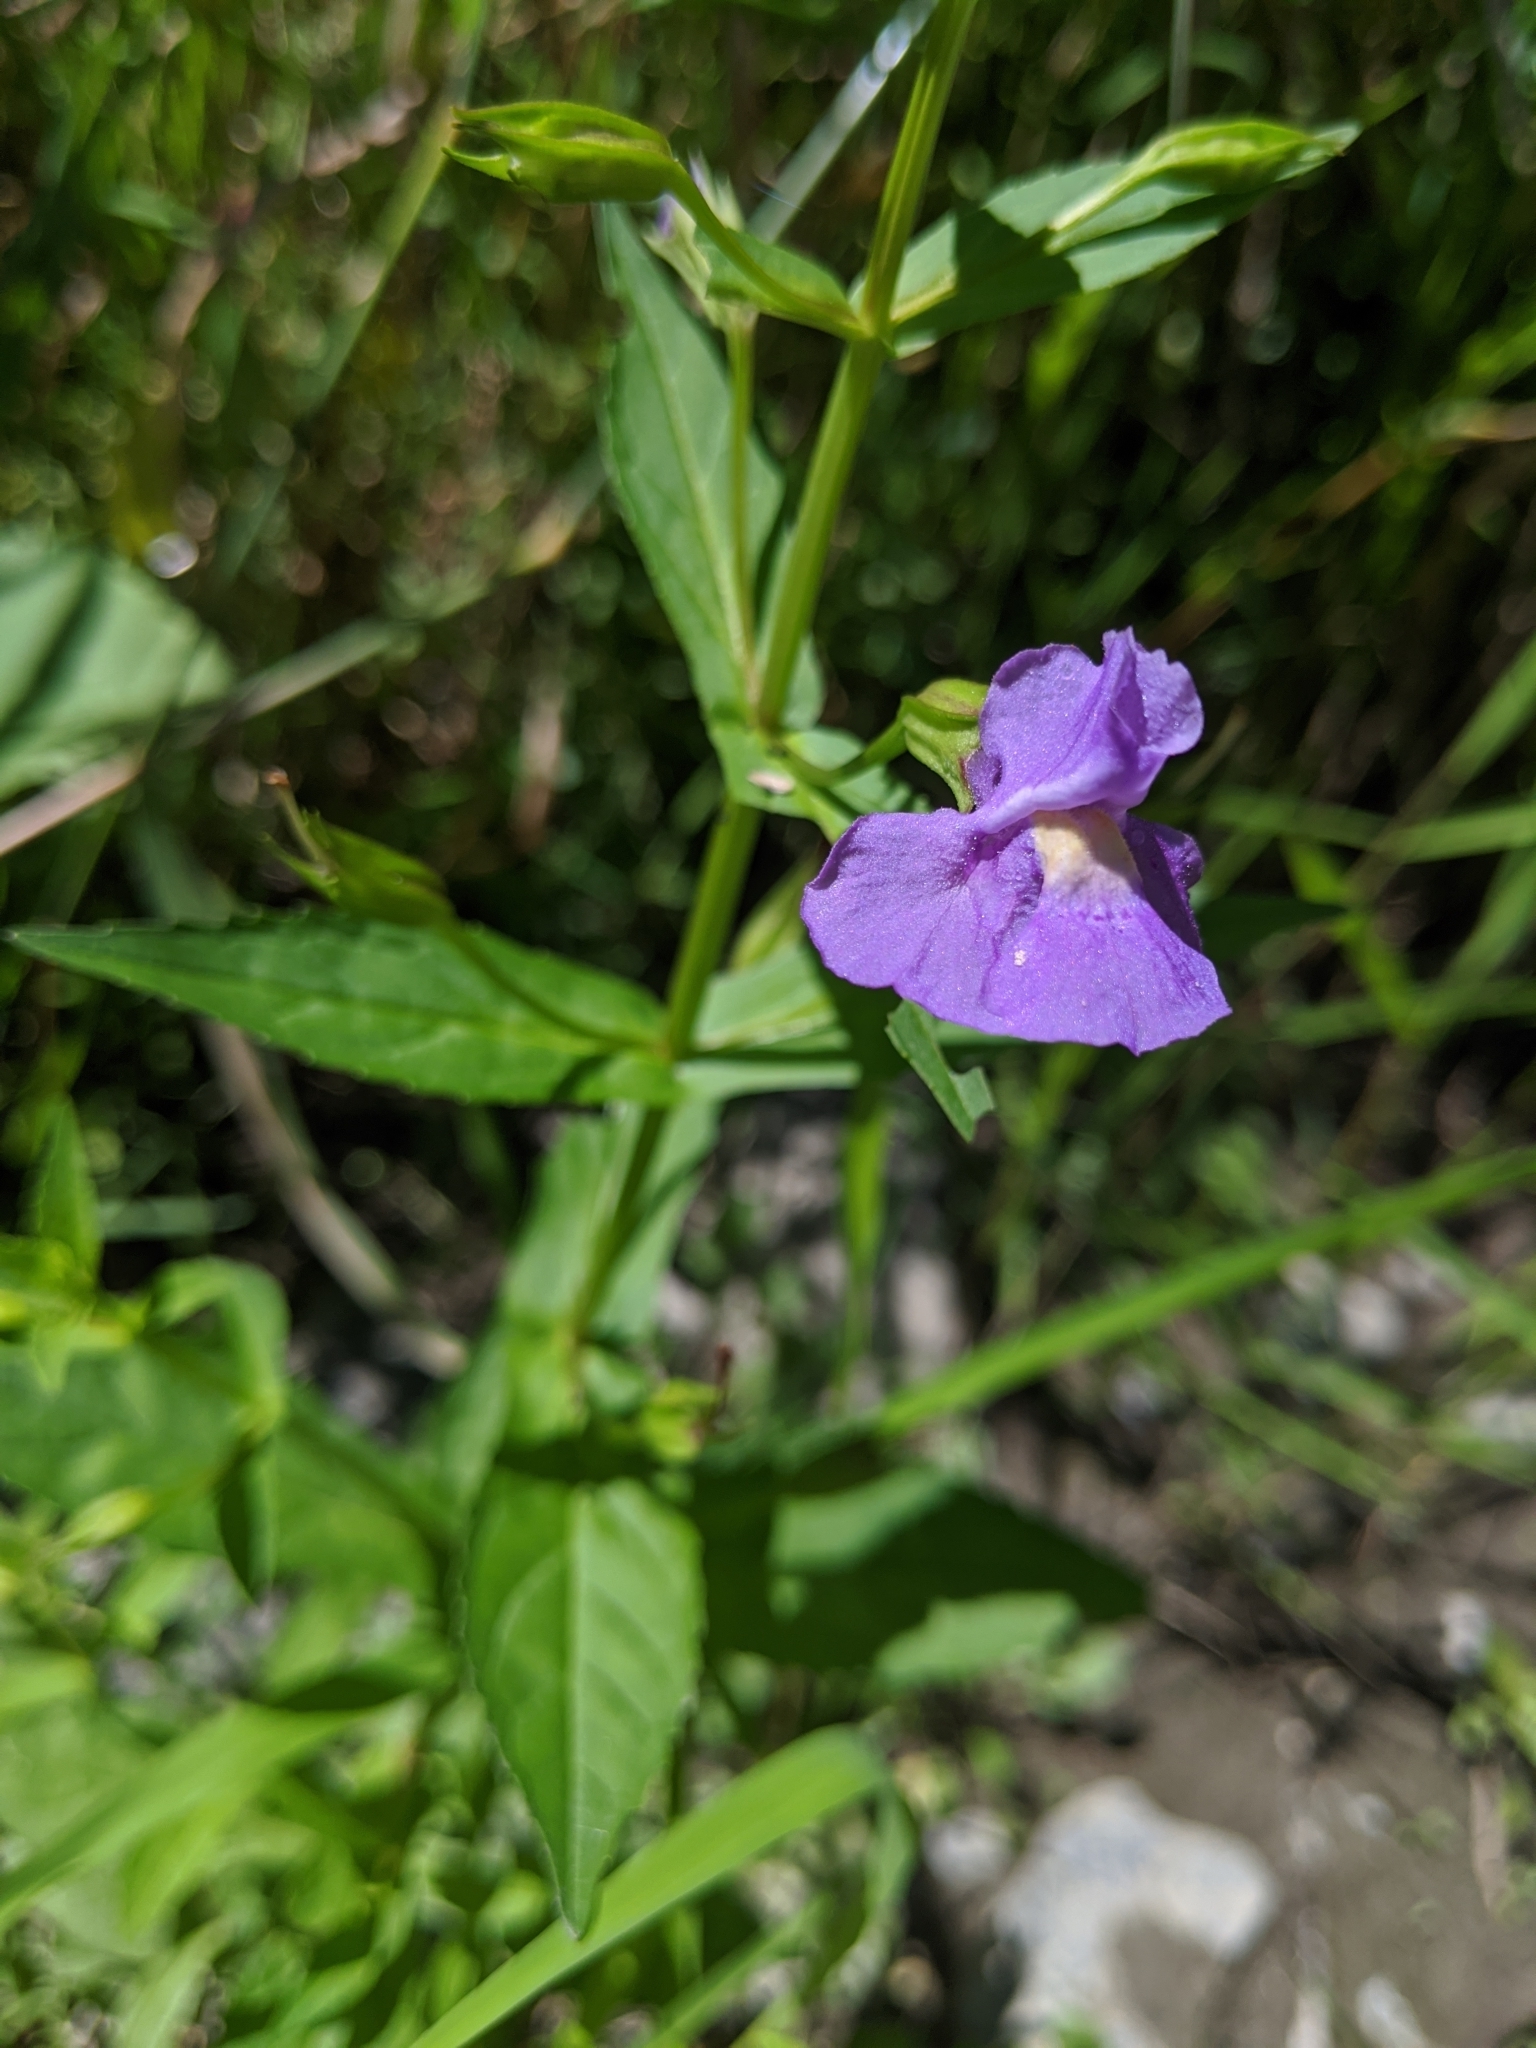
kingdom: Plantae
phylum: Tracheophyta
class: Magnoliopsida
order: Lamiales
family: Phrymaceae
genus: Mimulus
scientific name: Mimulus ringens
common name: Allegheny monkeyflower
